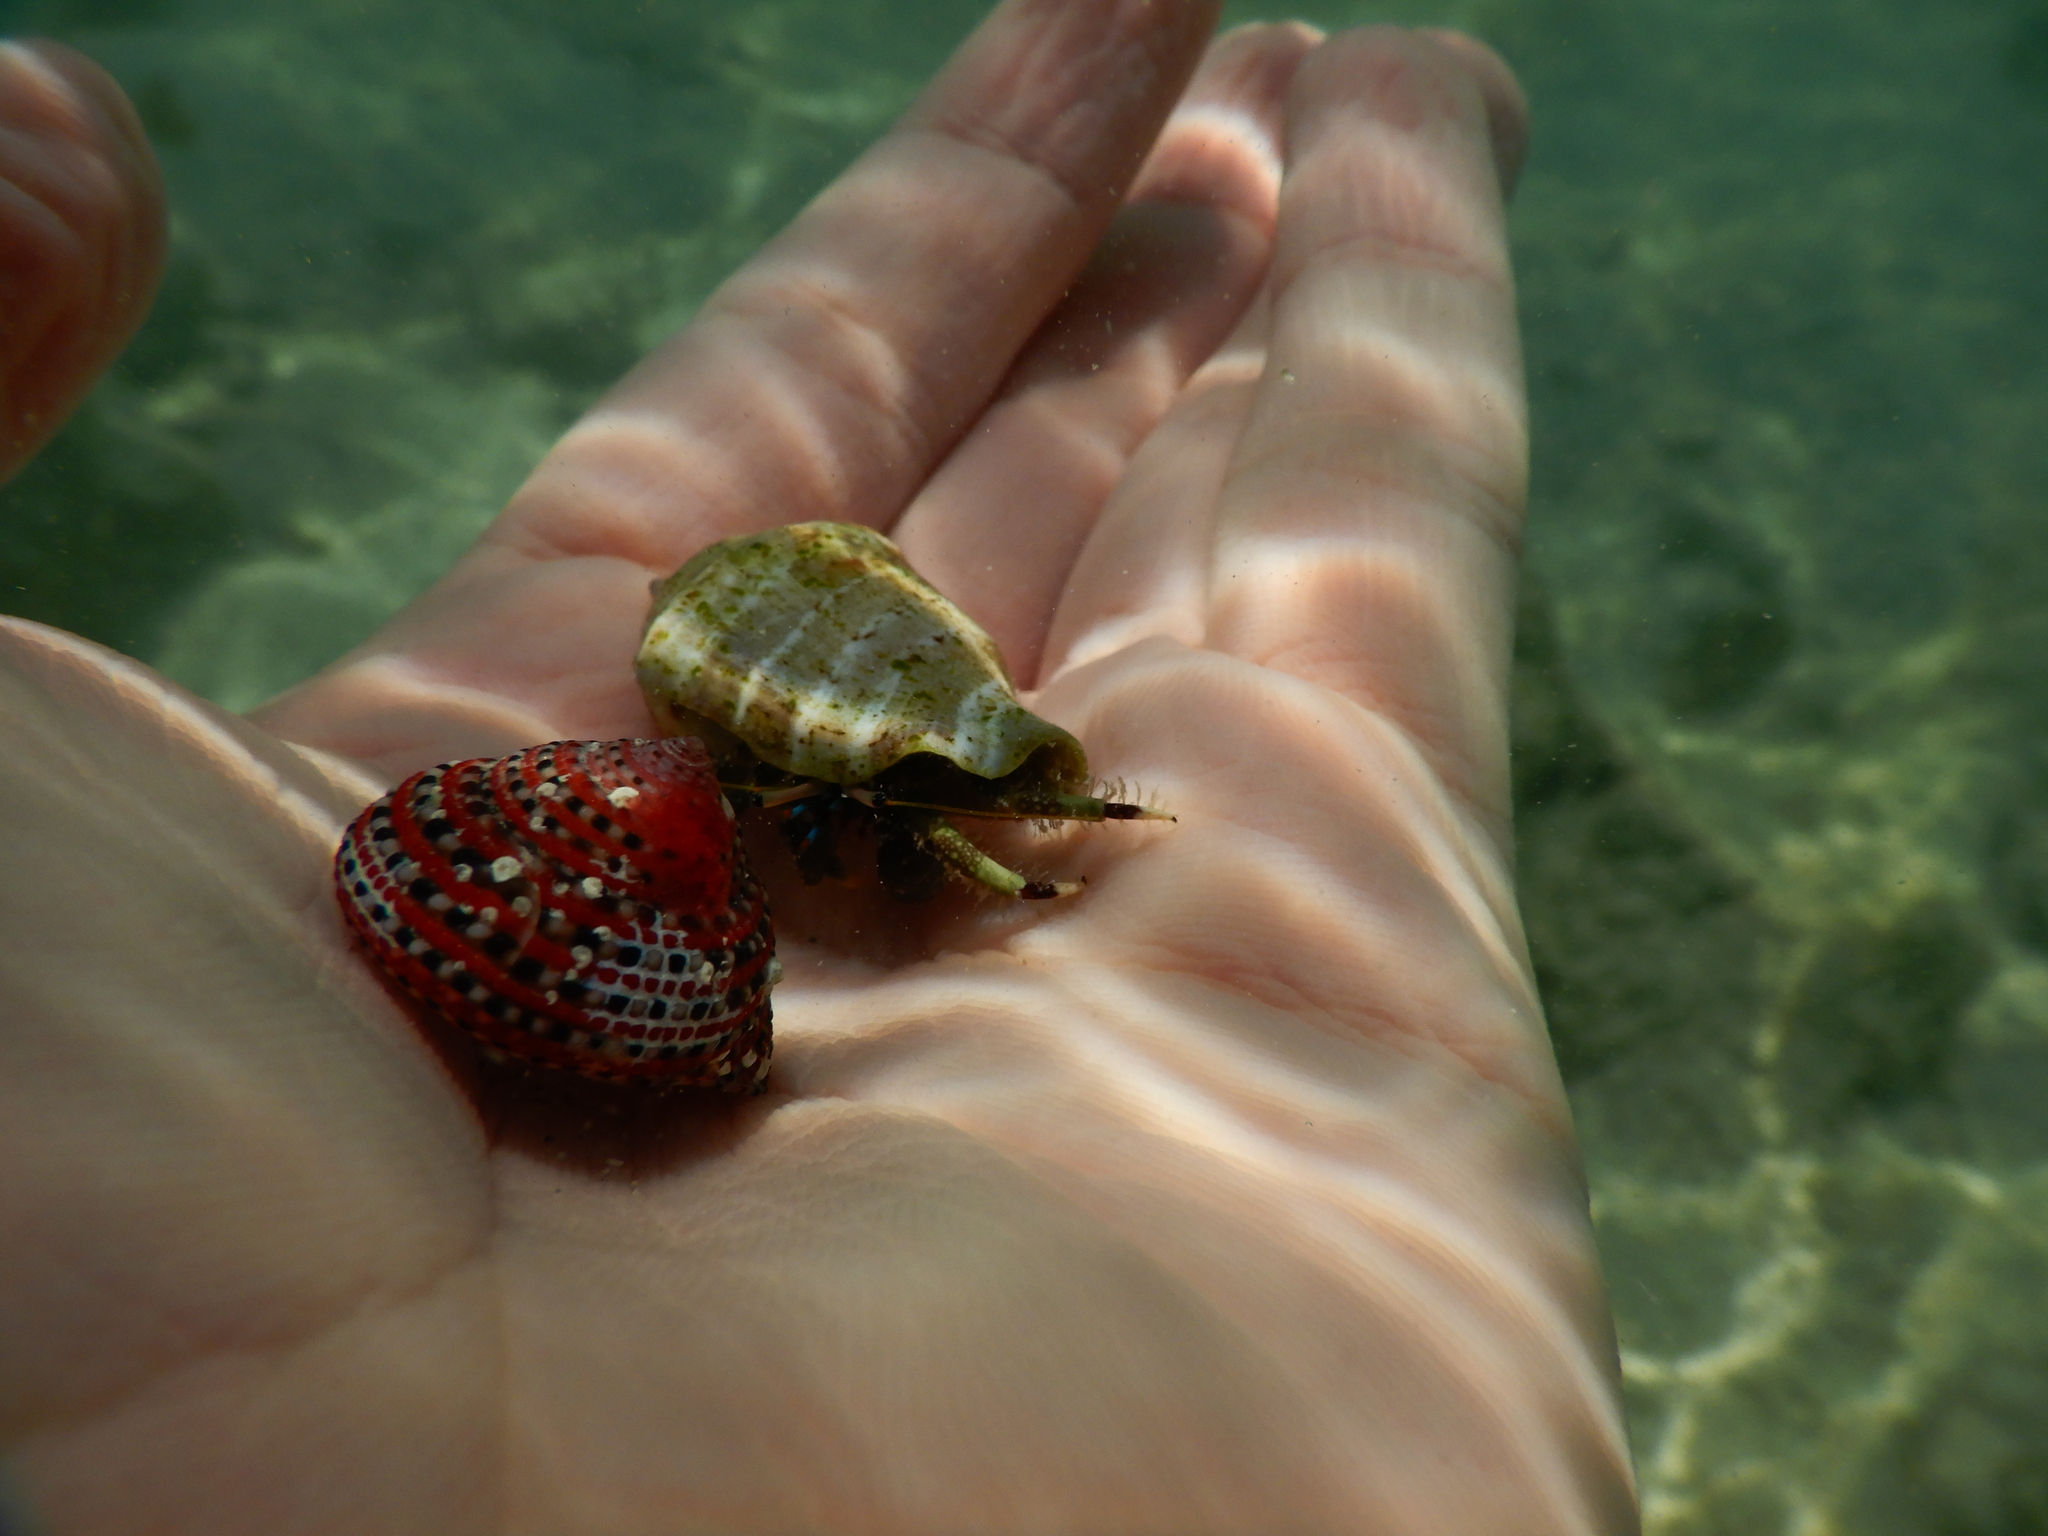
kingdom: Animalia
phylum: Mollusca
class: Gastropoda
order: Trochida
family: Trochidae
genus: Clanculus
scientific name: Clanculus pharaonius
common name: Strawberry top
